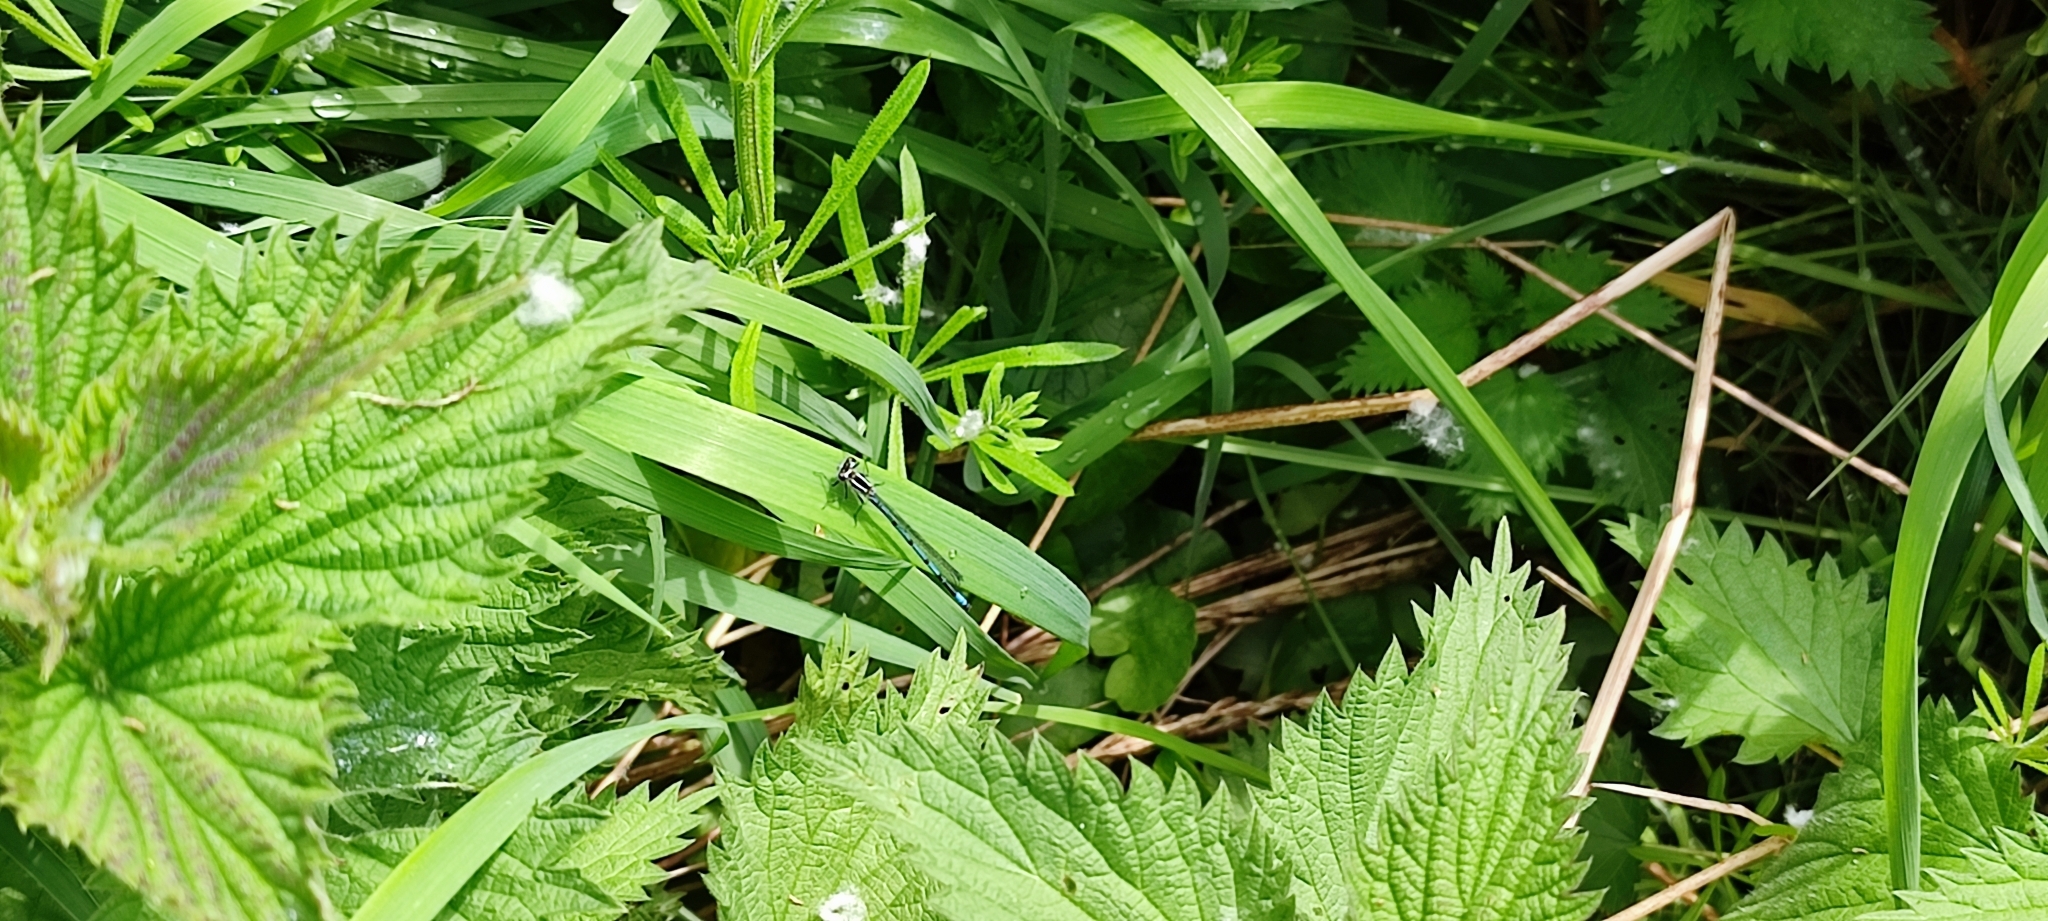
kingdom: Animalia
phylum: Arthropoda
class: Insecta
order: Odonata
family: Coenagrionidae
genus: Coenagrion
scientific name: Coenagrion puella
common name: Azure damselfly
